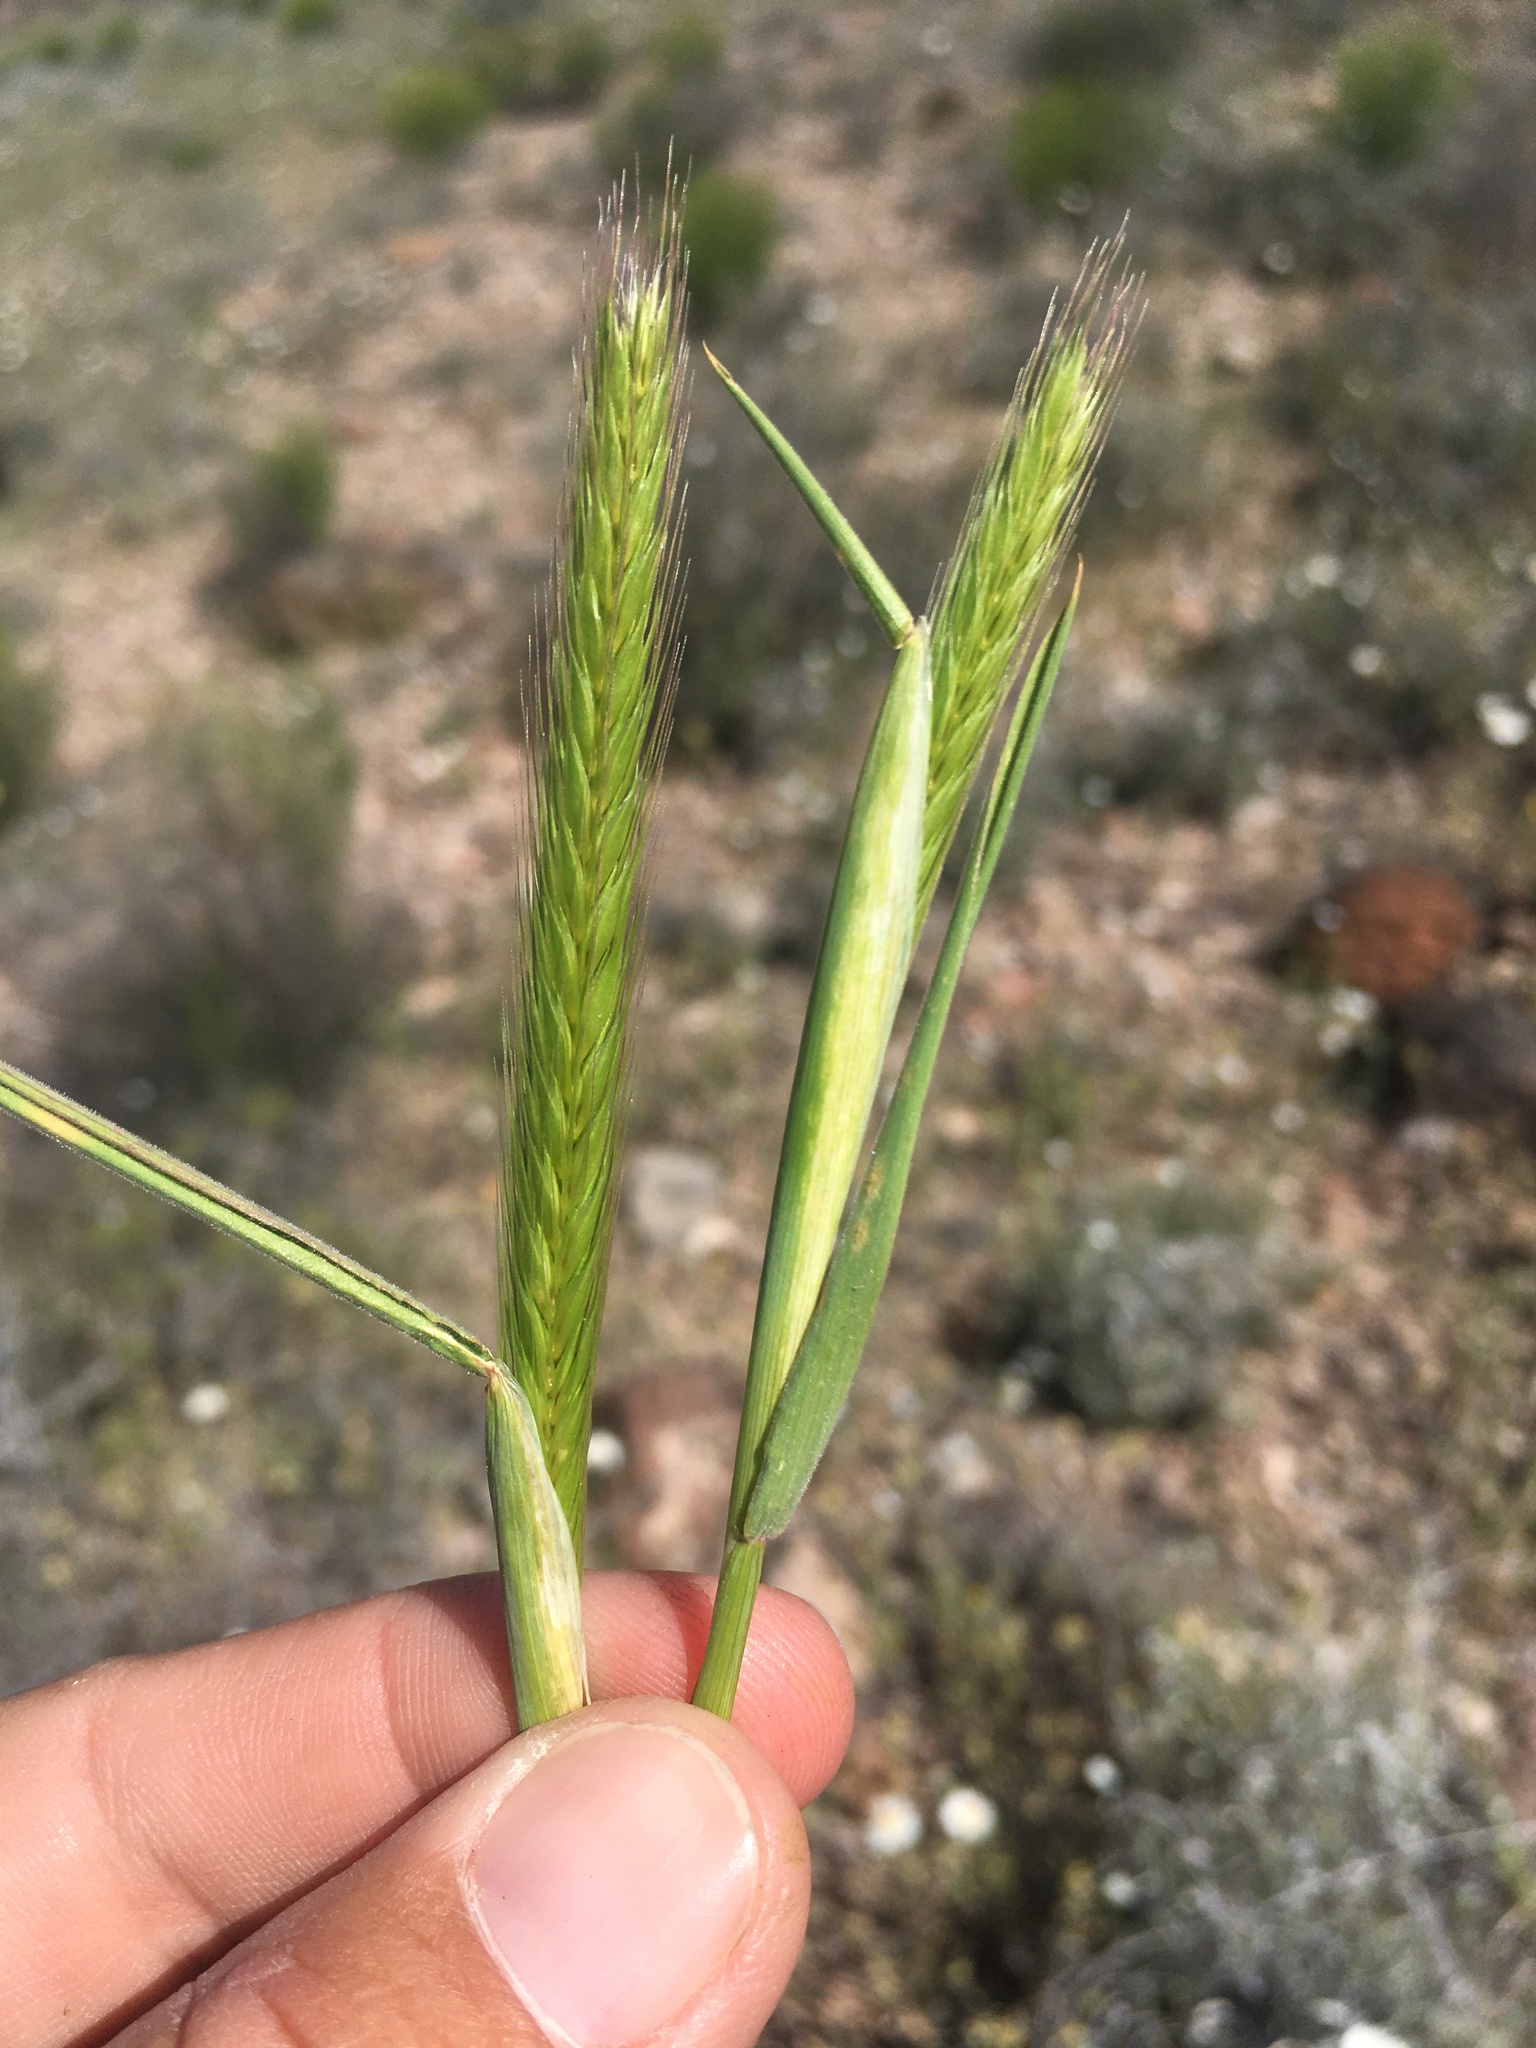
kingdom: Plantae
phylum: Tracheophyta
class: Liliopsida
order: Poales
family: Poaceae
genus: Hordeum
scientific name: Hordeum pusillum
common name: Little barley
